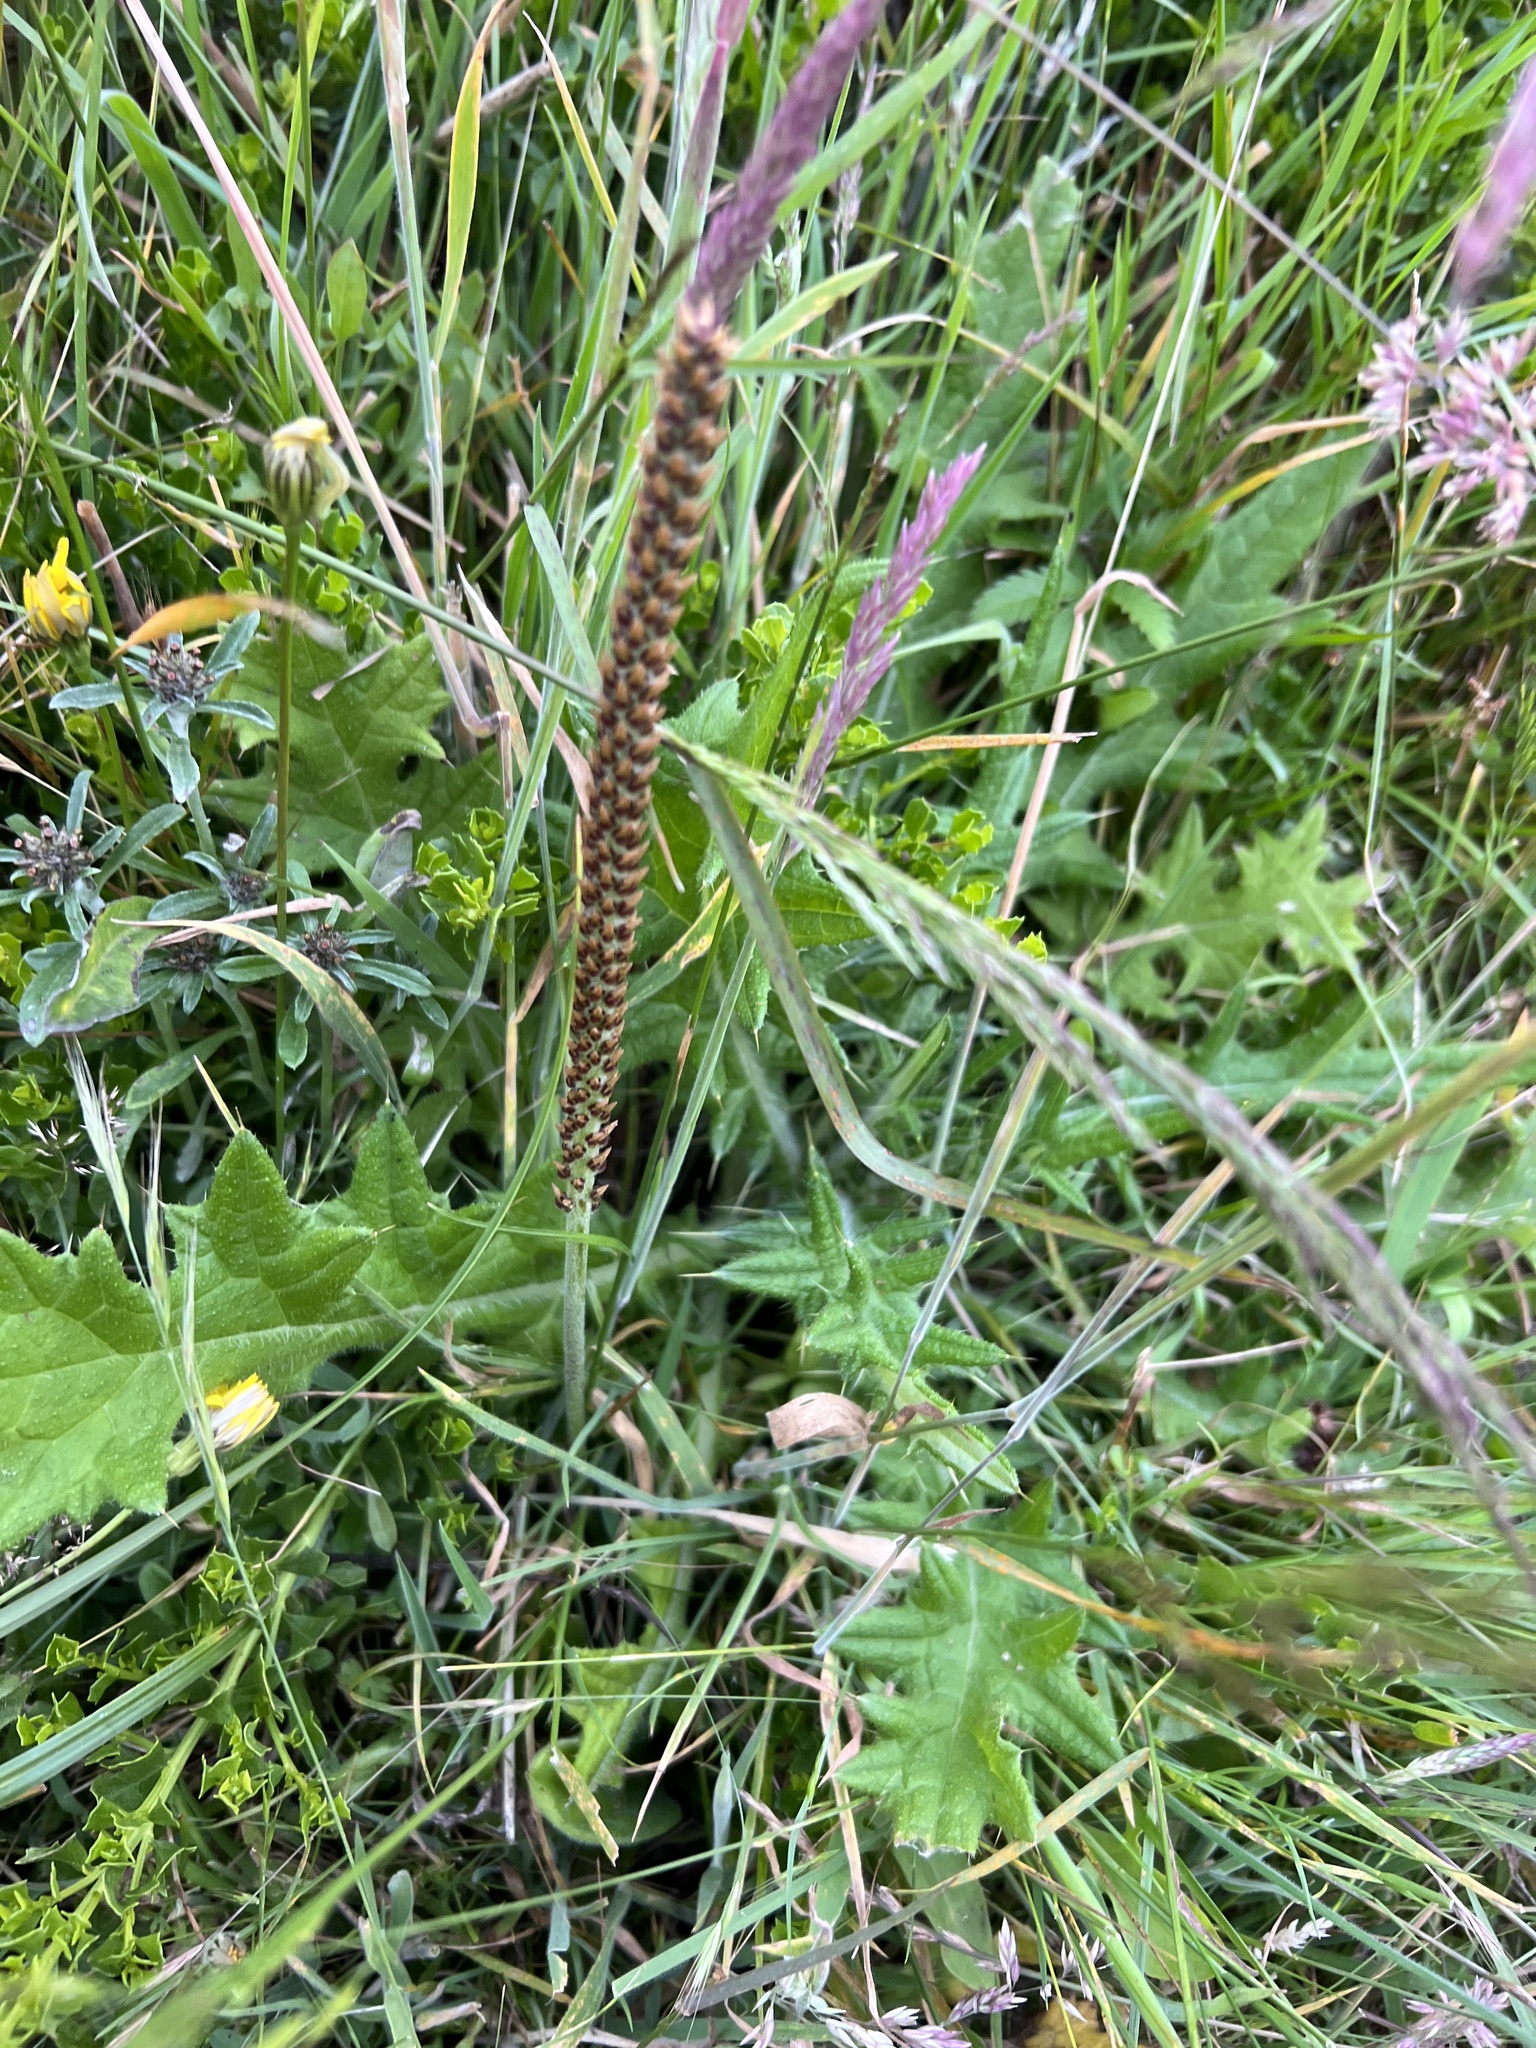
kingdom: Plantae
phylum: Tracheophyta
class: Magnoliopsida
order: Lamiales
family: Plantaginaceae
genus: Plantago
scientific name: Plantago subnuda
